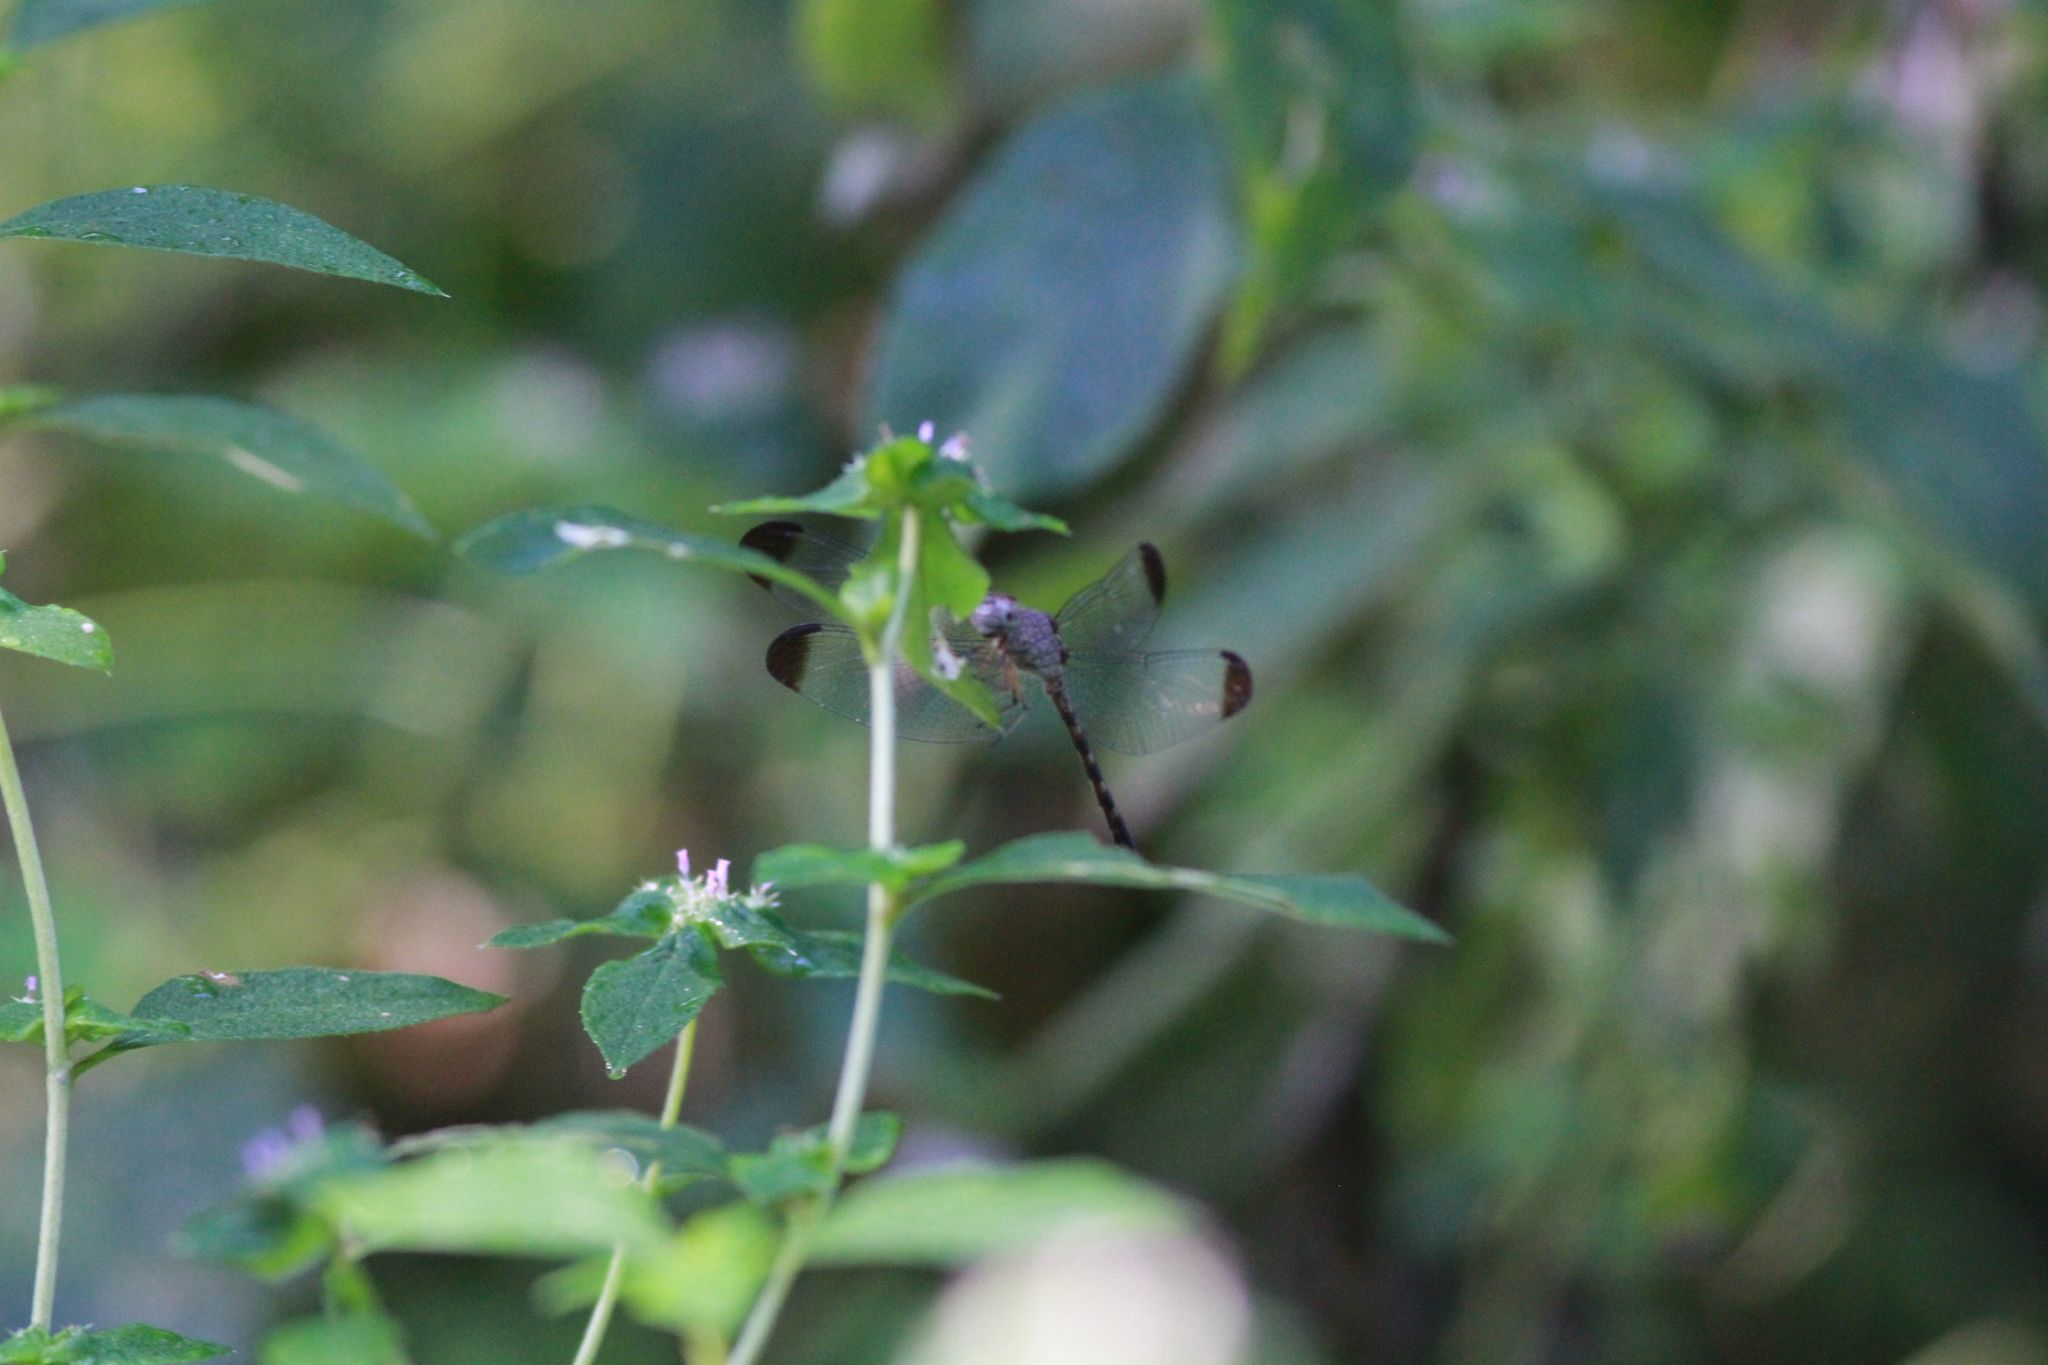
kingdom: Animalia
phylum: Arthropoda
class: Insecta
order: Odonata
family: Libellulidae
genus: Uracis
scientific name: Uracis imbuta
